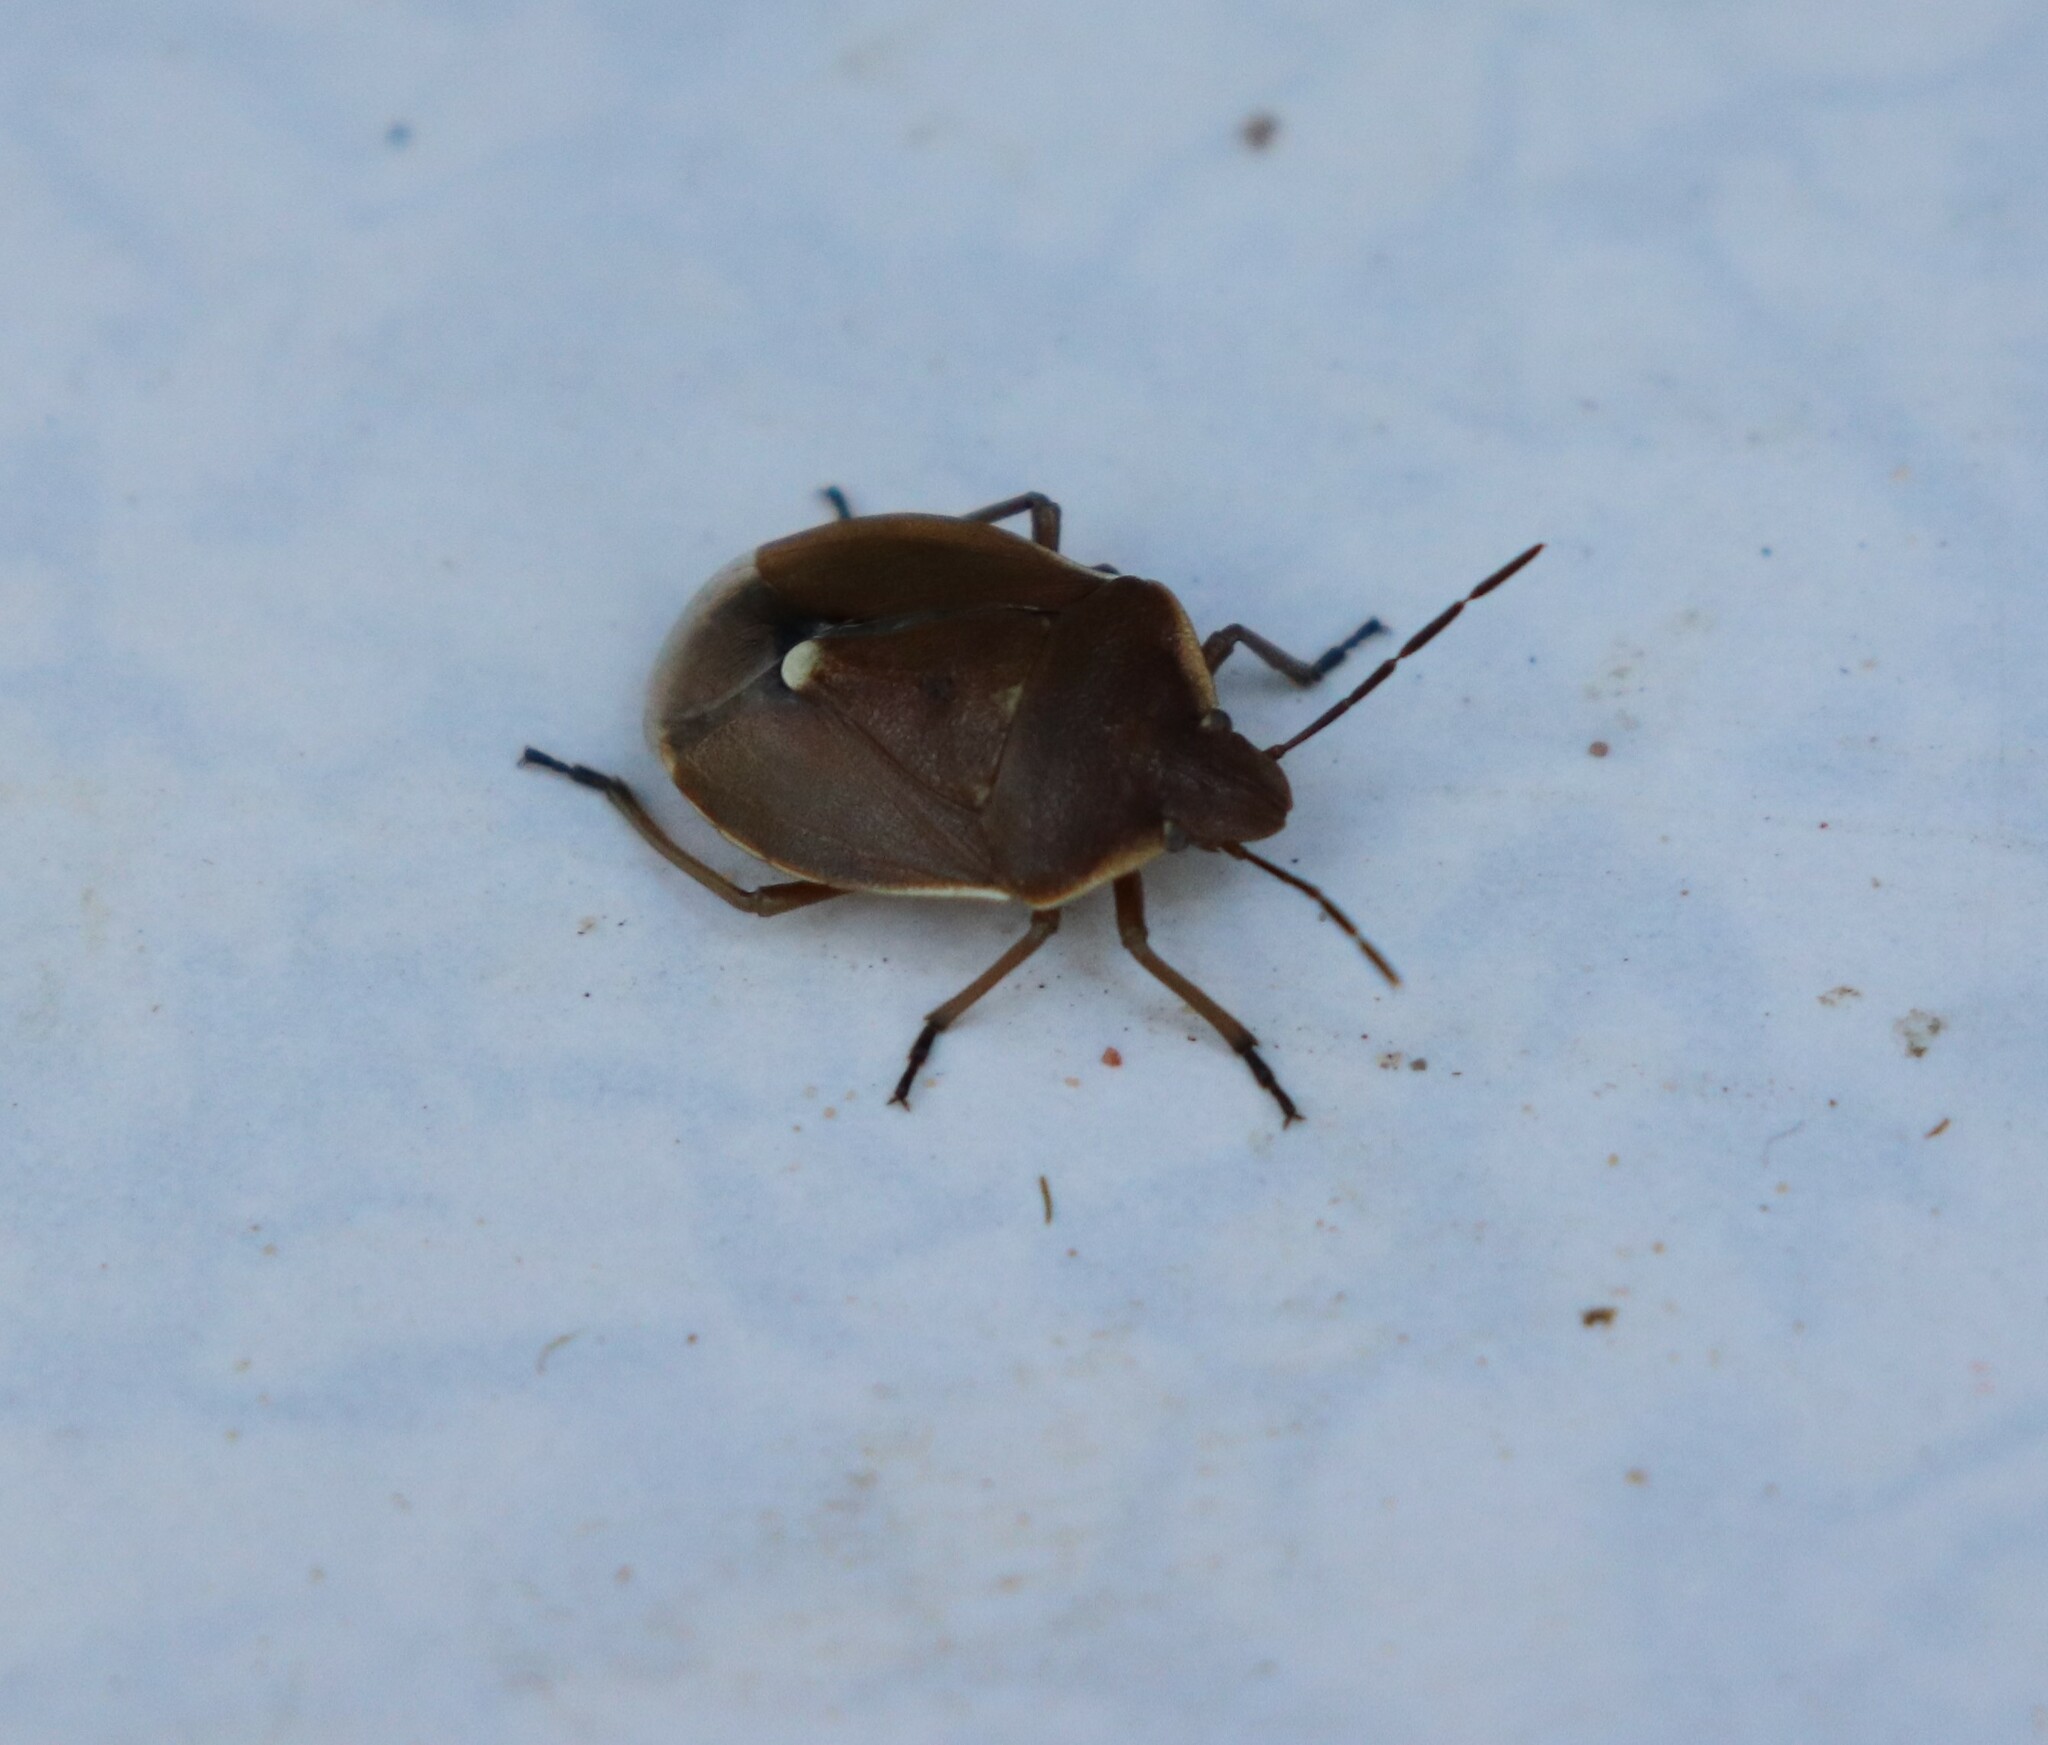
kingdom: Animalia
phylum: Arthropoda
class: Insecta
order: Hemiptera
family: Pentatomidae
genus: Chlorochroa
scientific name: Chlorochroa pinicola
